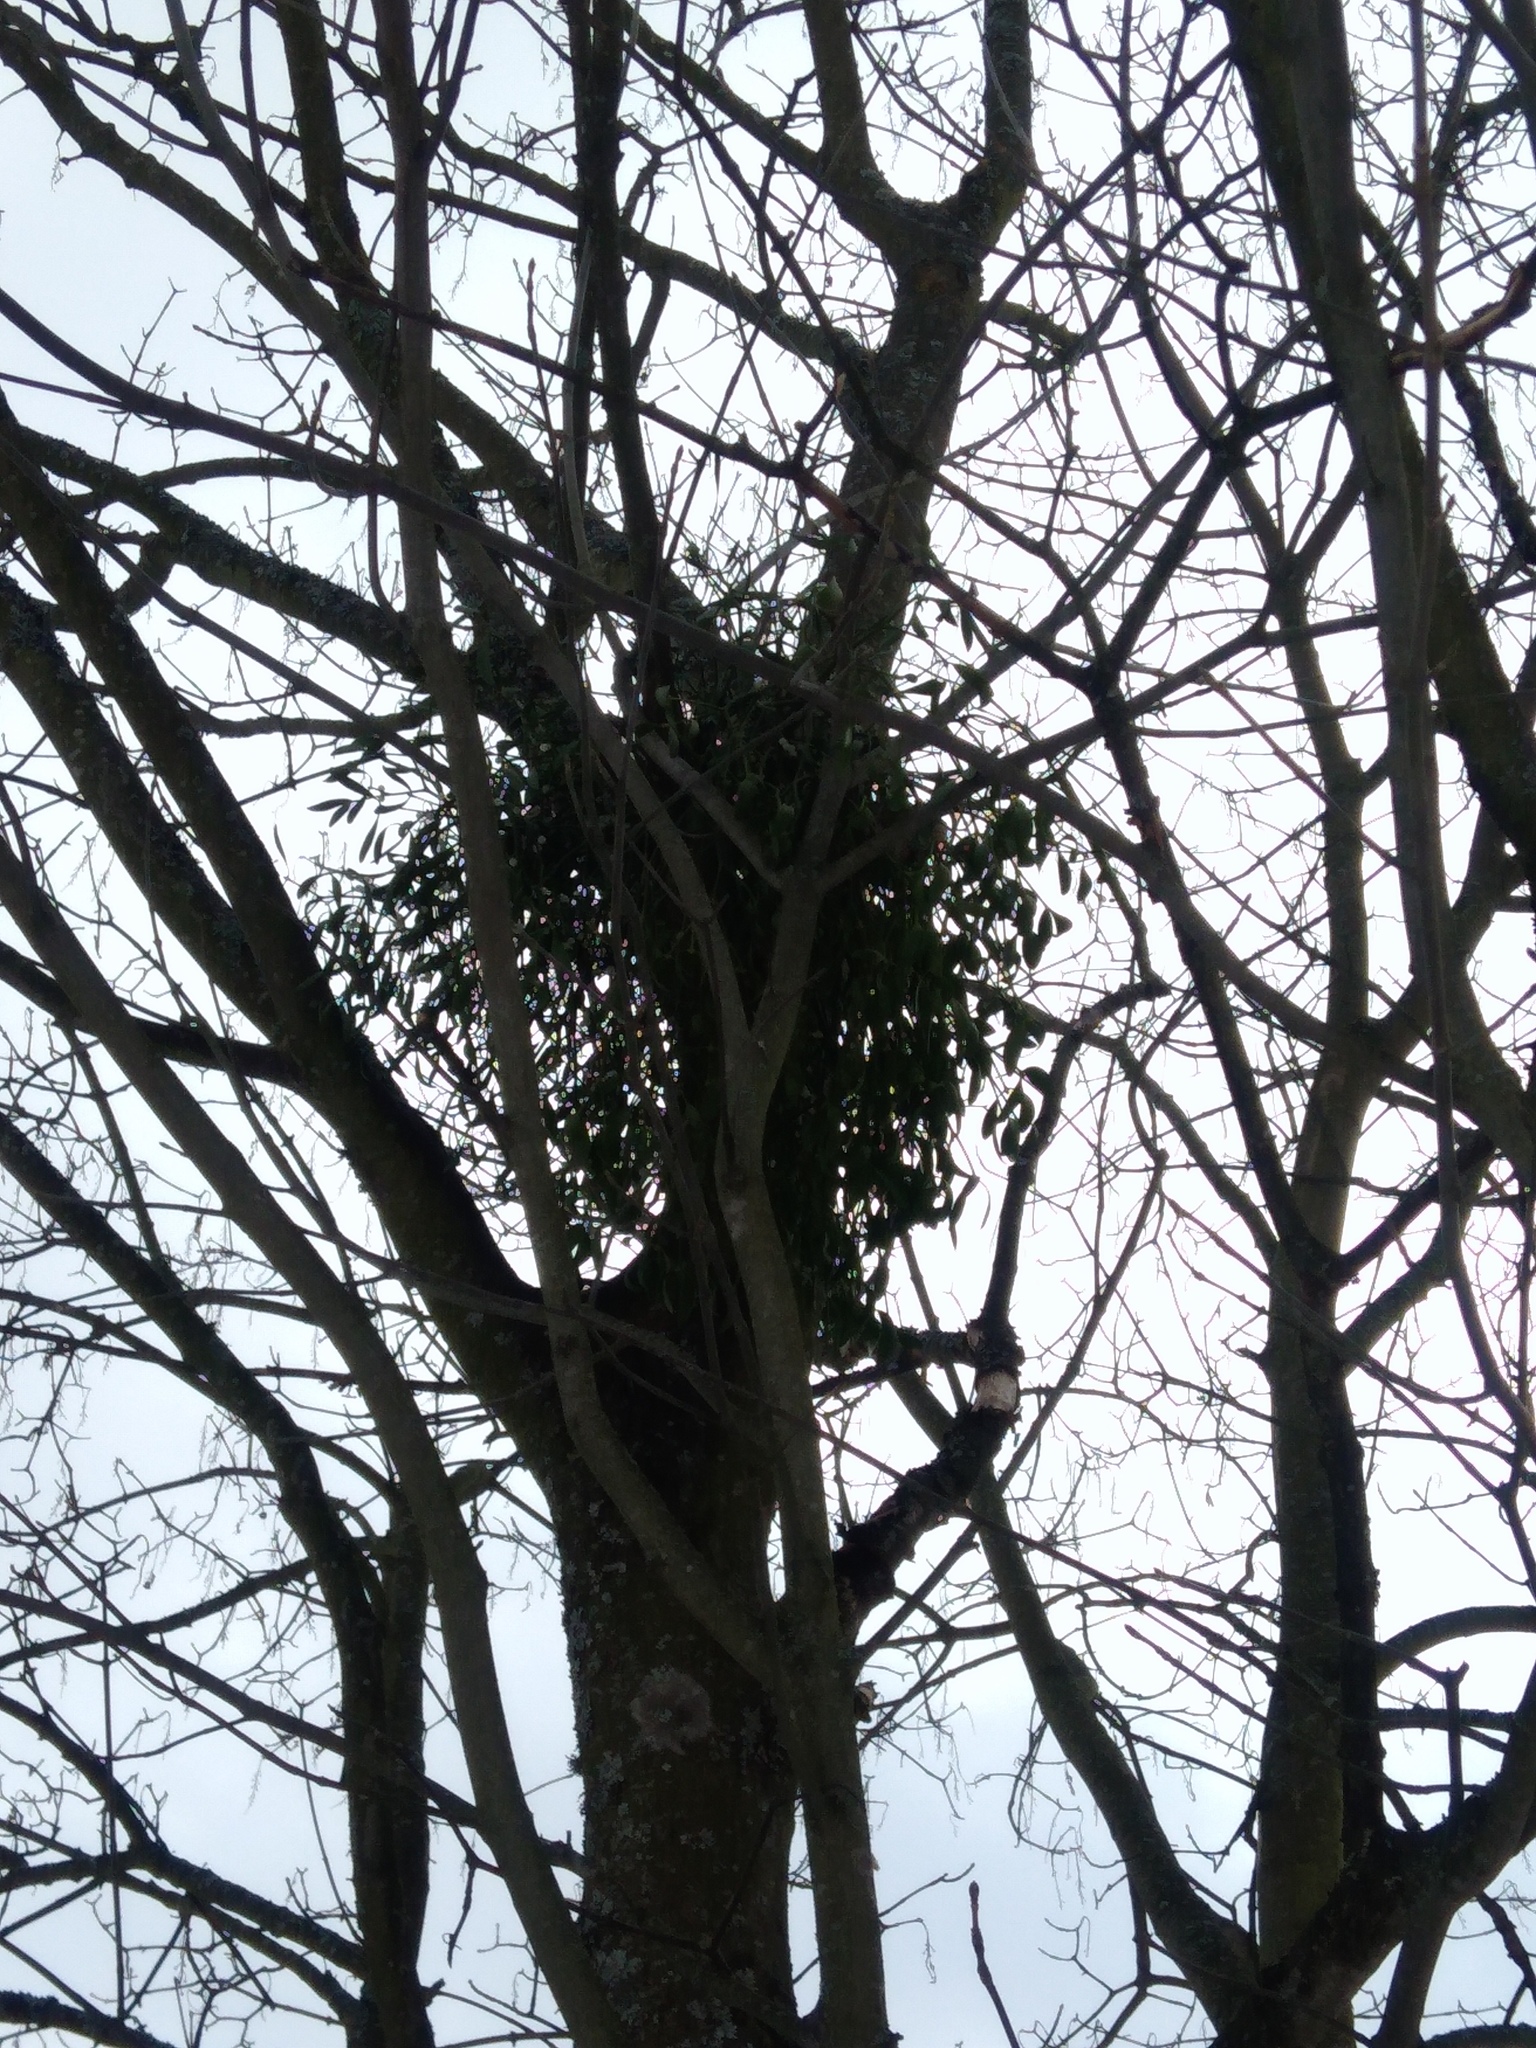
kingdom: Plantae
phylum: Tracheophyta
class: Magnoliopsida
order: Santalales
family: Viscaceae
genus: Viscum
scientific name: Viscum album
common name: Mistletoe
